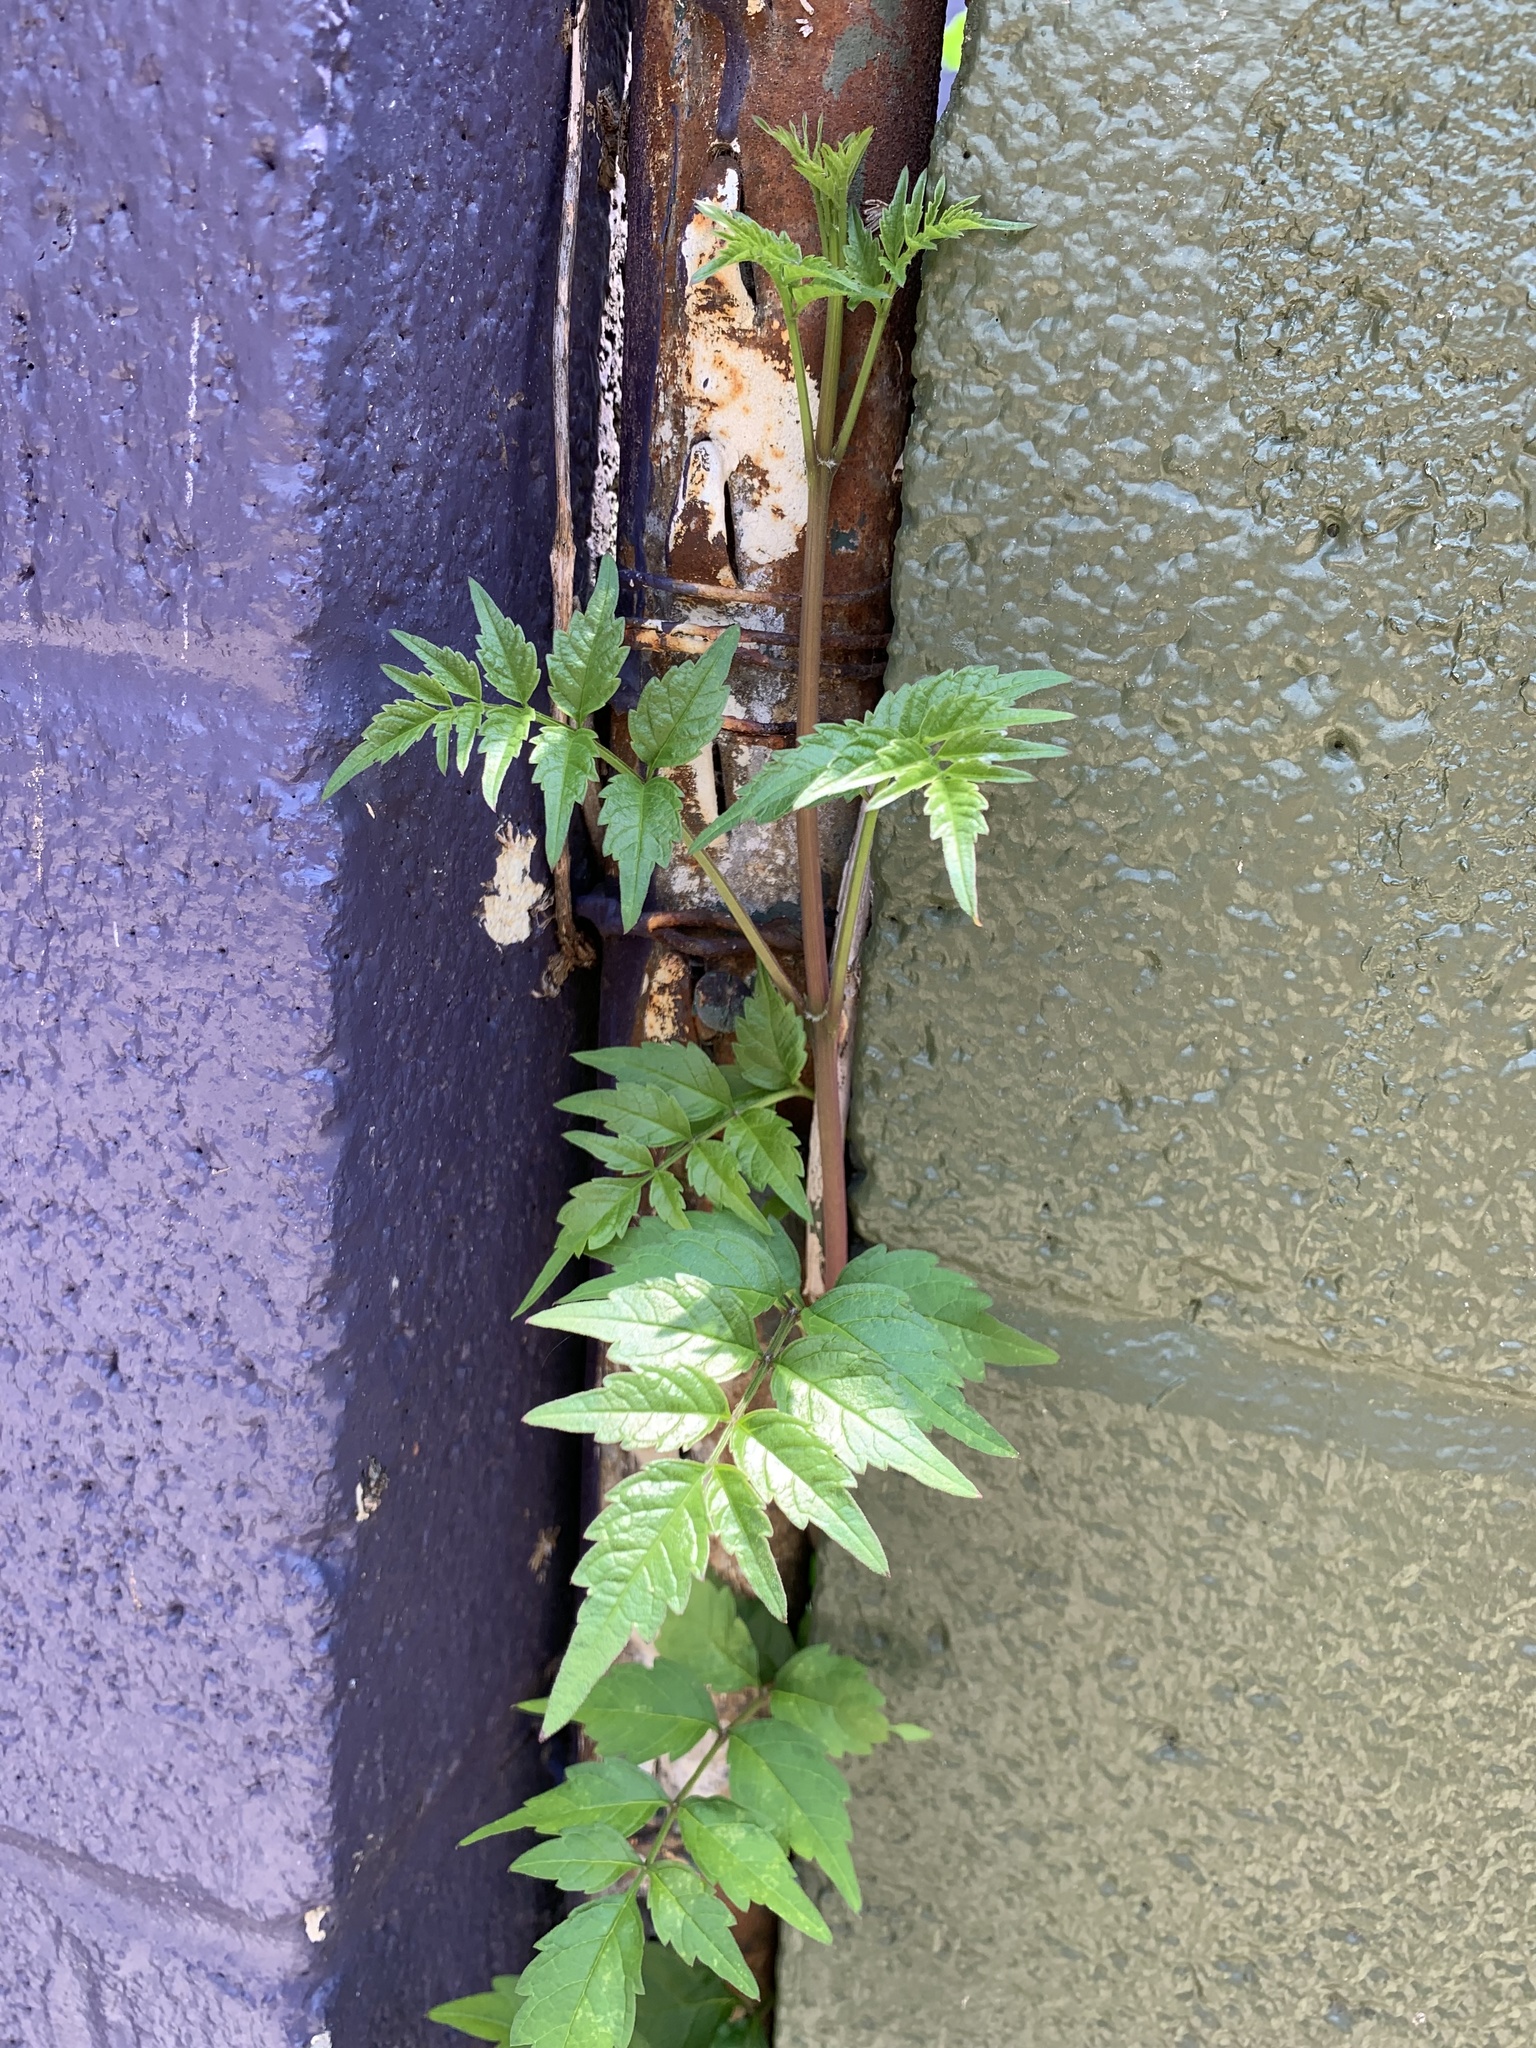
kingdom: Plantae
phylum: Tracheophyta
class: Magnoliopsida
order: Lamiales
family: Bignoniaceae
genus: Campsis
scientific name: Campsis radicans
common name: Trumpet-creeper
